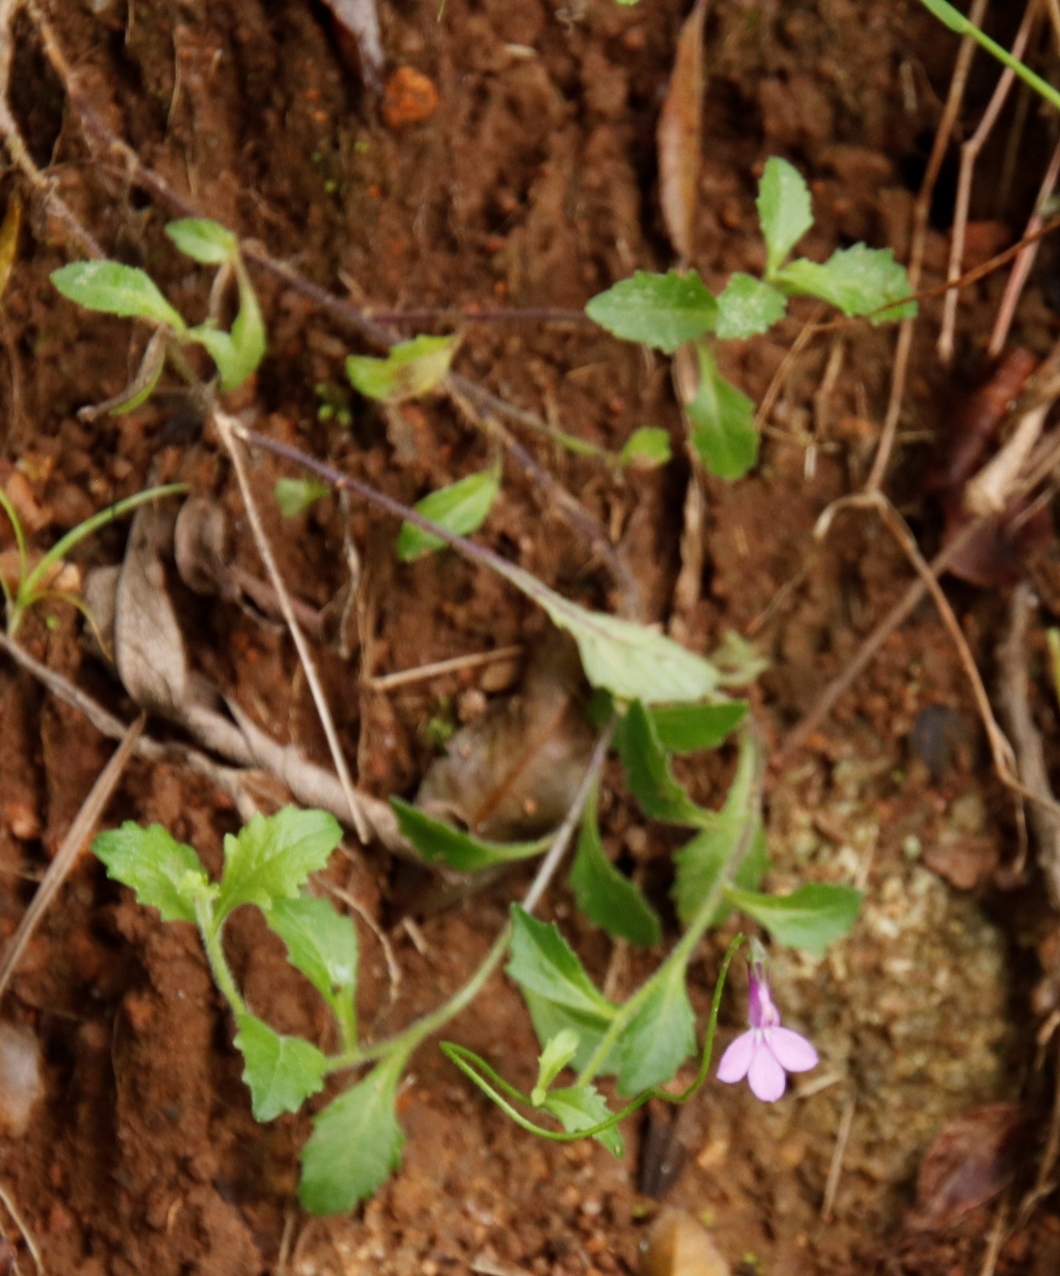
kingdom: Plantae
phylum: Tracheophyta
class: Magnoliopsida
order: Asterales
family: Campanulaceae
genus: Lobelia
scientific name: Lobelia goetzei
